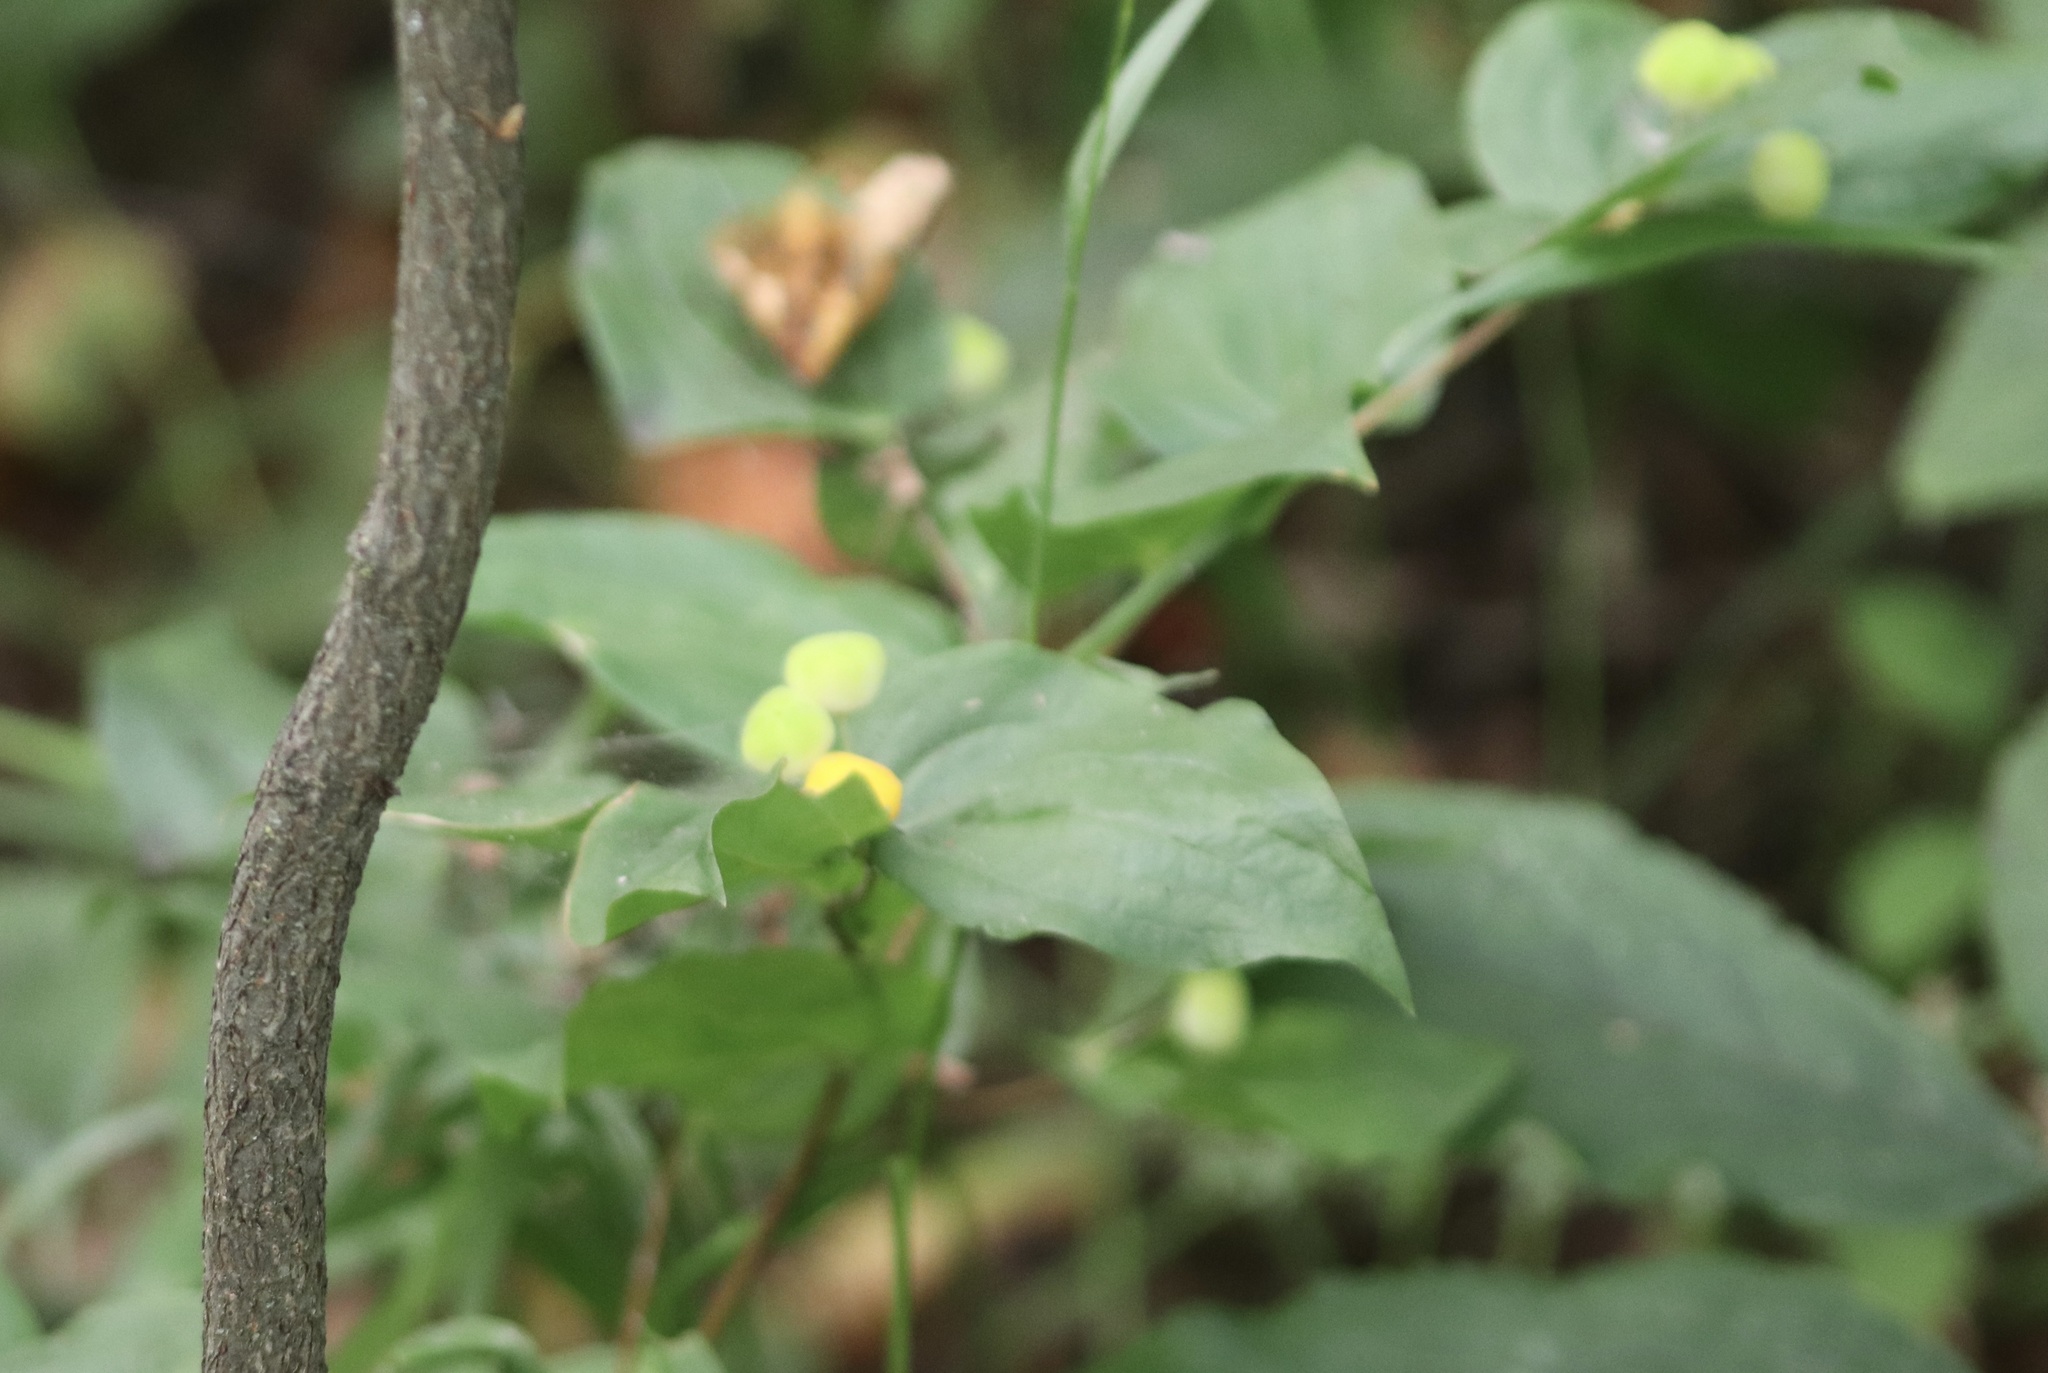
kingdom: Plantae
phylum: Tracheophyta
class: Liliopsida
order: Liliales
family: Liliaceae
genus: Prosartes
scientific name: Prosartes trachycarpa
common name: Rough-fruit fairy-bells
